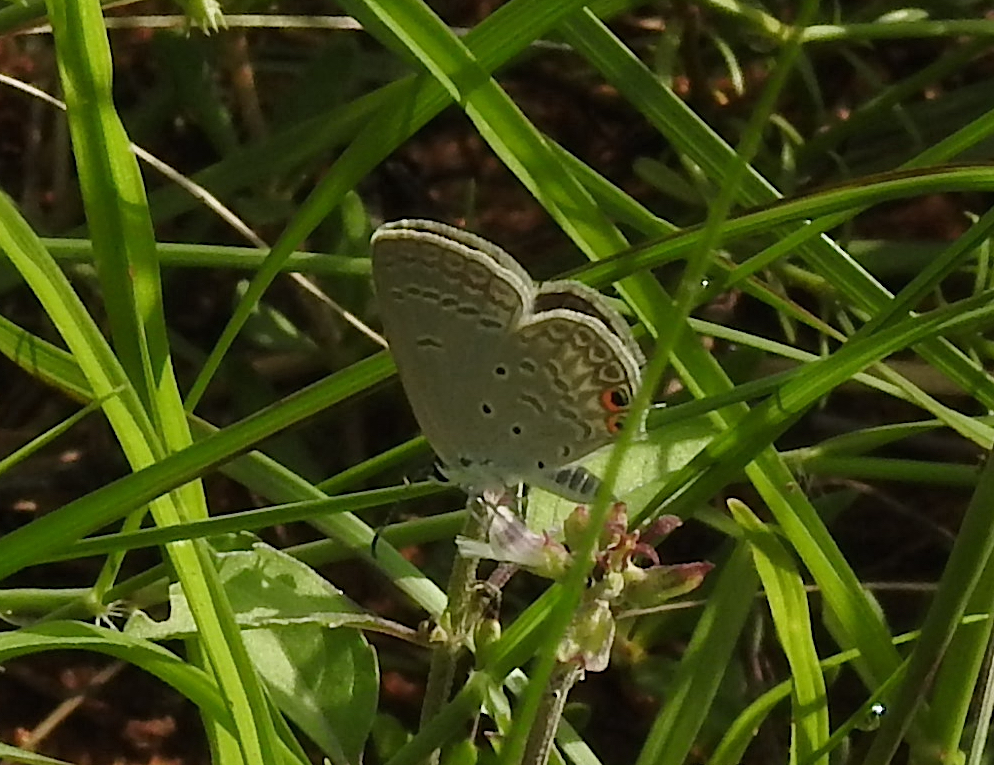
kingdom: Animalia
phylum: Arthropoda
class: Insecta
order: Lepidoptera
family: Lycaenidae
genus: Euchrysops
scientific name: Euchrysops cnejus
